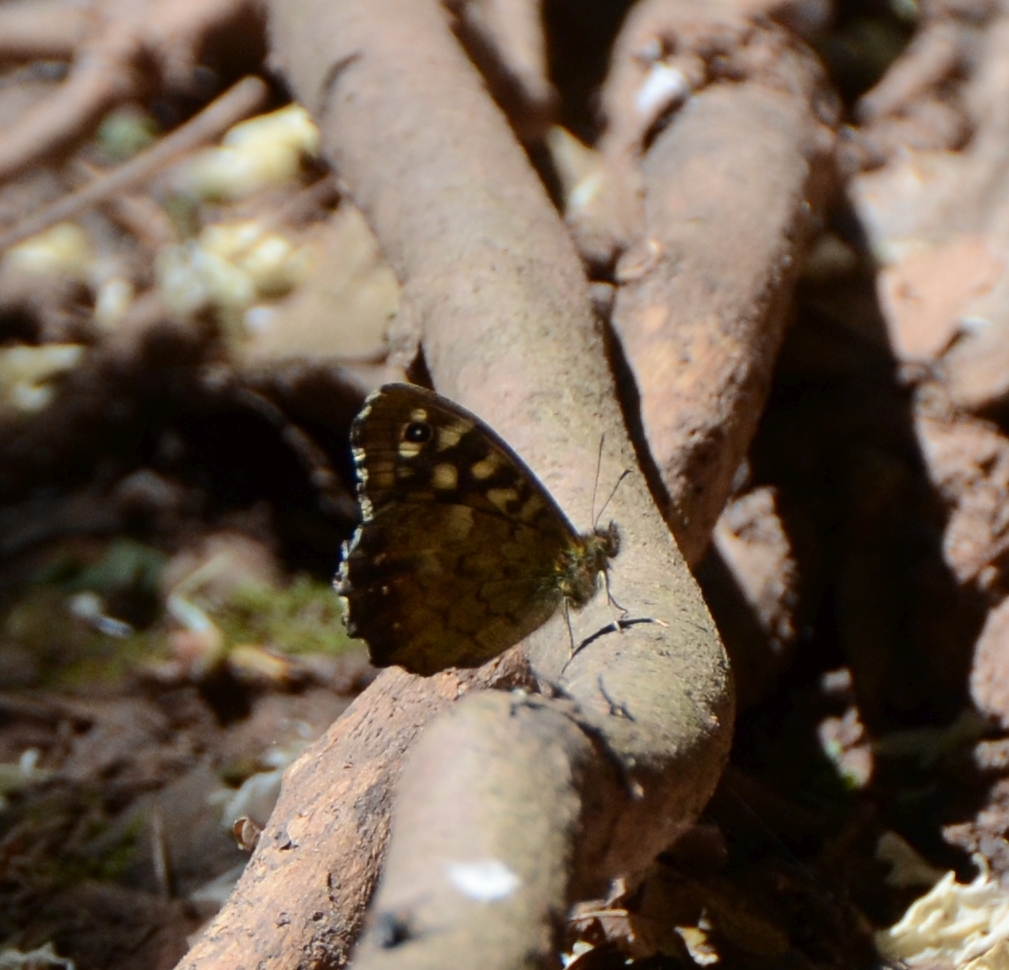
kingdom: Animalia
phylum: Arthropoda
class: Insecta
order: Lepidoptera
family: Nymphalidae
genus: Pararge
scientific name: Pararge aegeria
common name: Speckled wood
